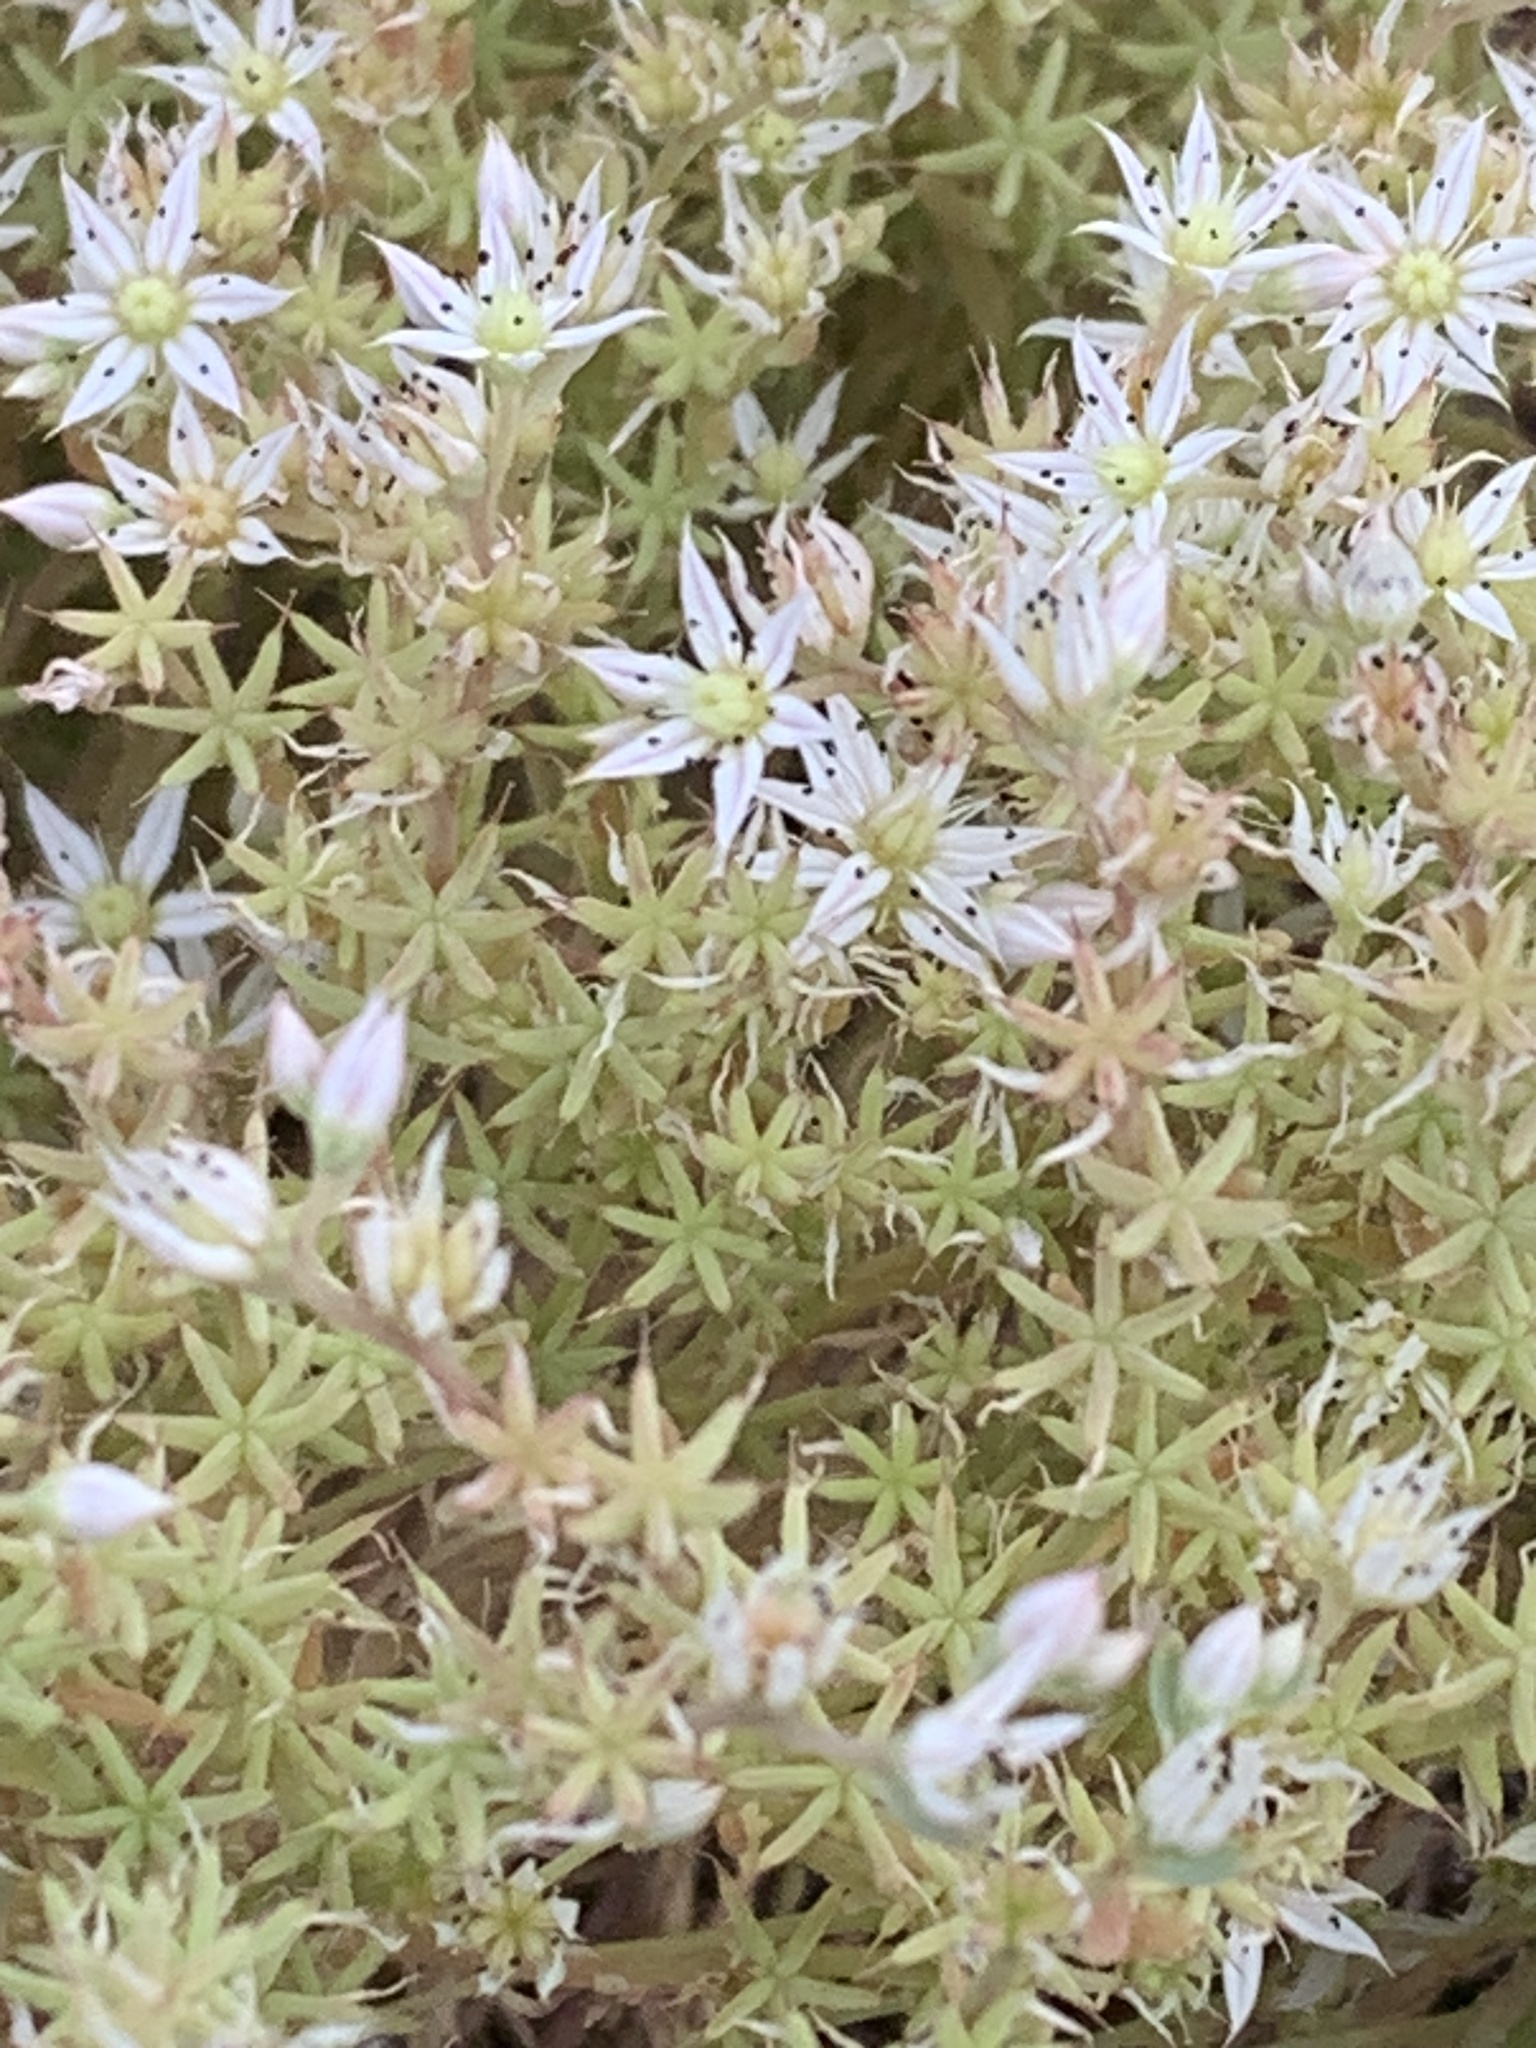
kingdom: Plantae
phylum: Tracheophyta
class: Magnoliopsida
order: Saxifragales
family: Crassulaceae
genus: Sedum
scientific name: Sedum hispanicum
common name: Spanish stonecrop
